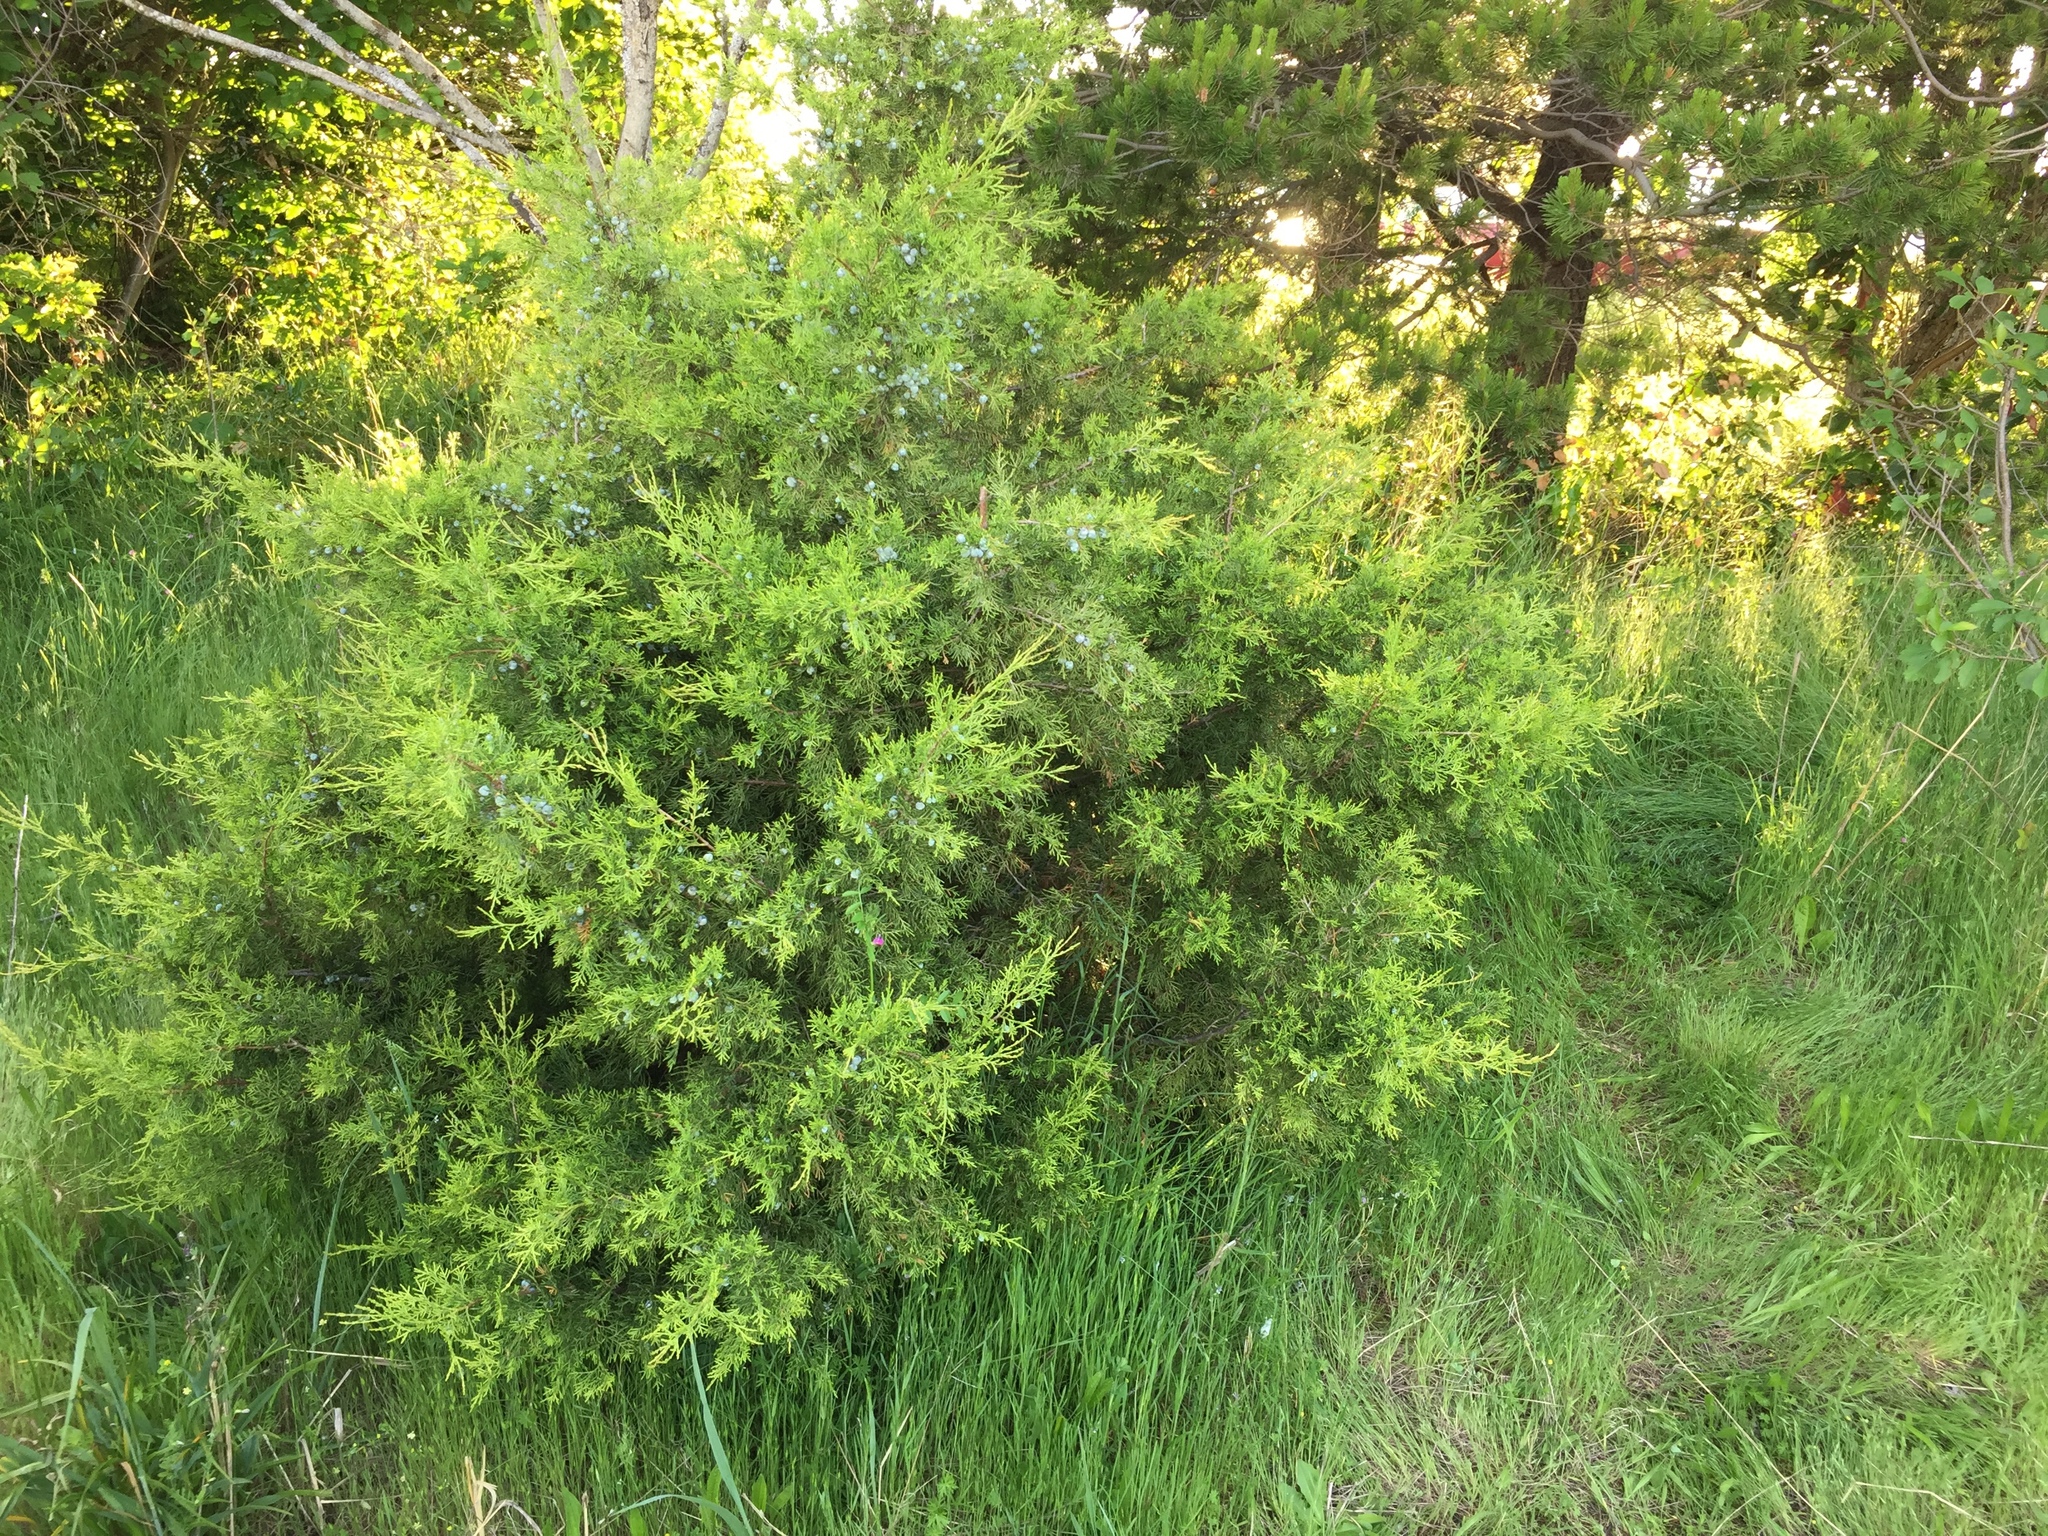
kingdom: Plantae
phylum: Tracheophyta
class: Pinopsida
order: Pinales
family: Cupressaceae
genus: Juniperus
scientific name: Juniperus scopulorum
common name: Rocky mountain juniper
